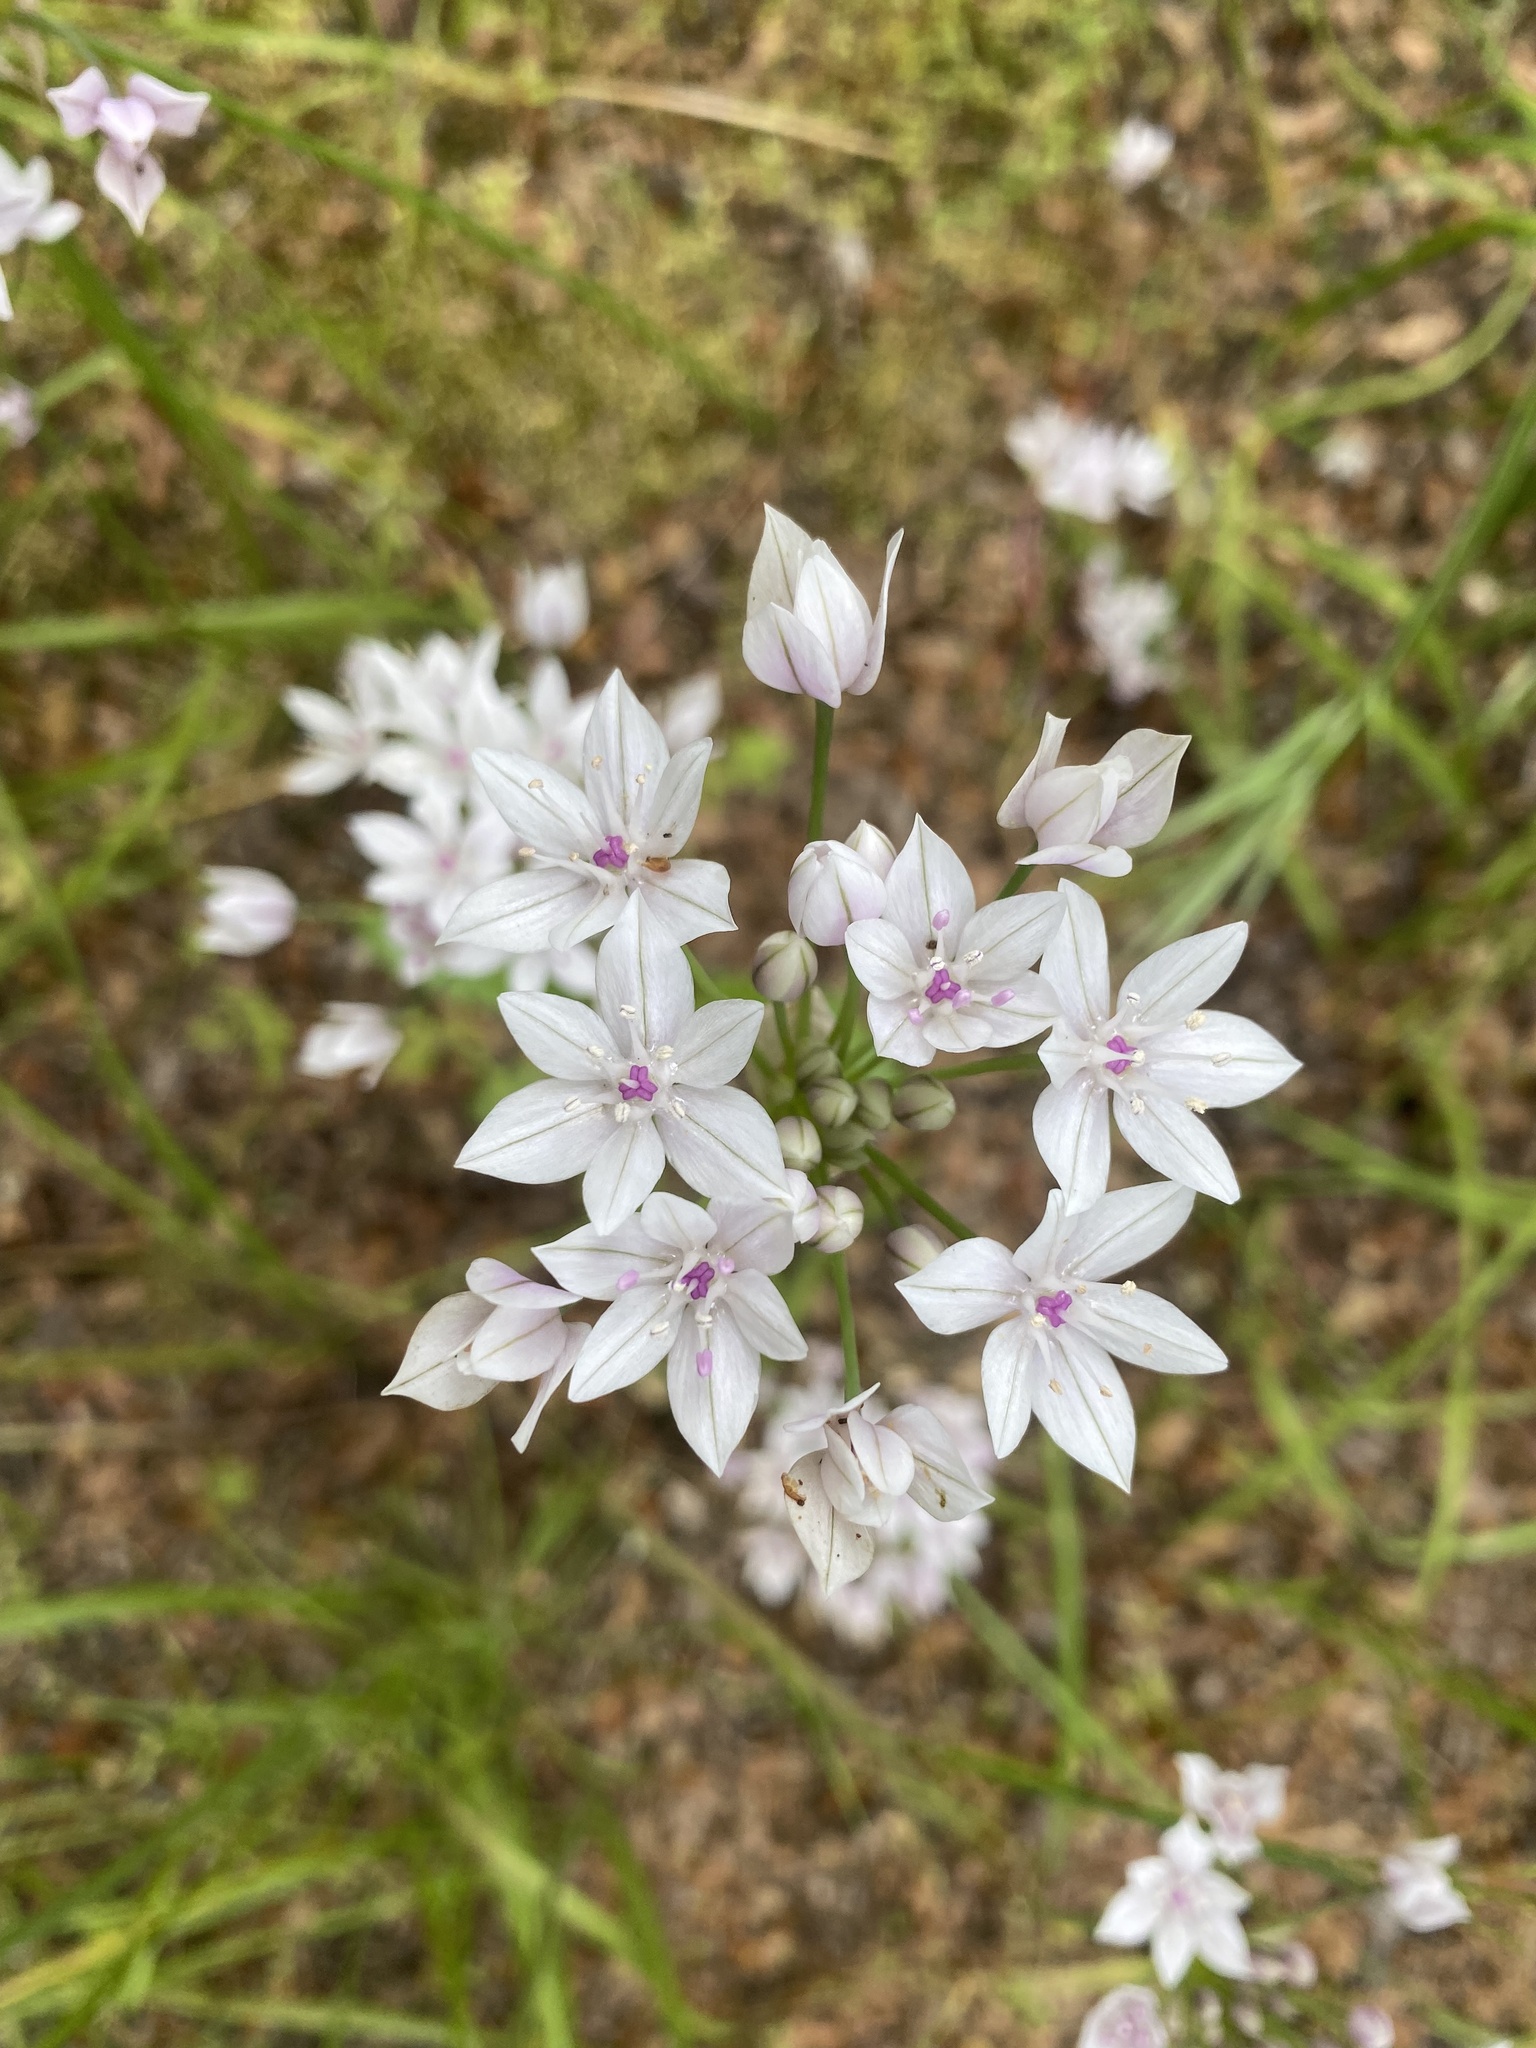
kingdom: Plantae
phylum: Tracheophyta
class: Liliopsida
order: Asparagales
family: Amaryllidaceae
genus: Allium
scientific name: Allium praecox
